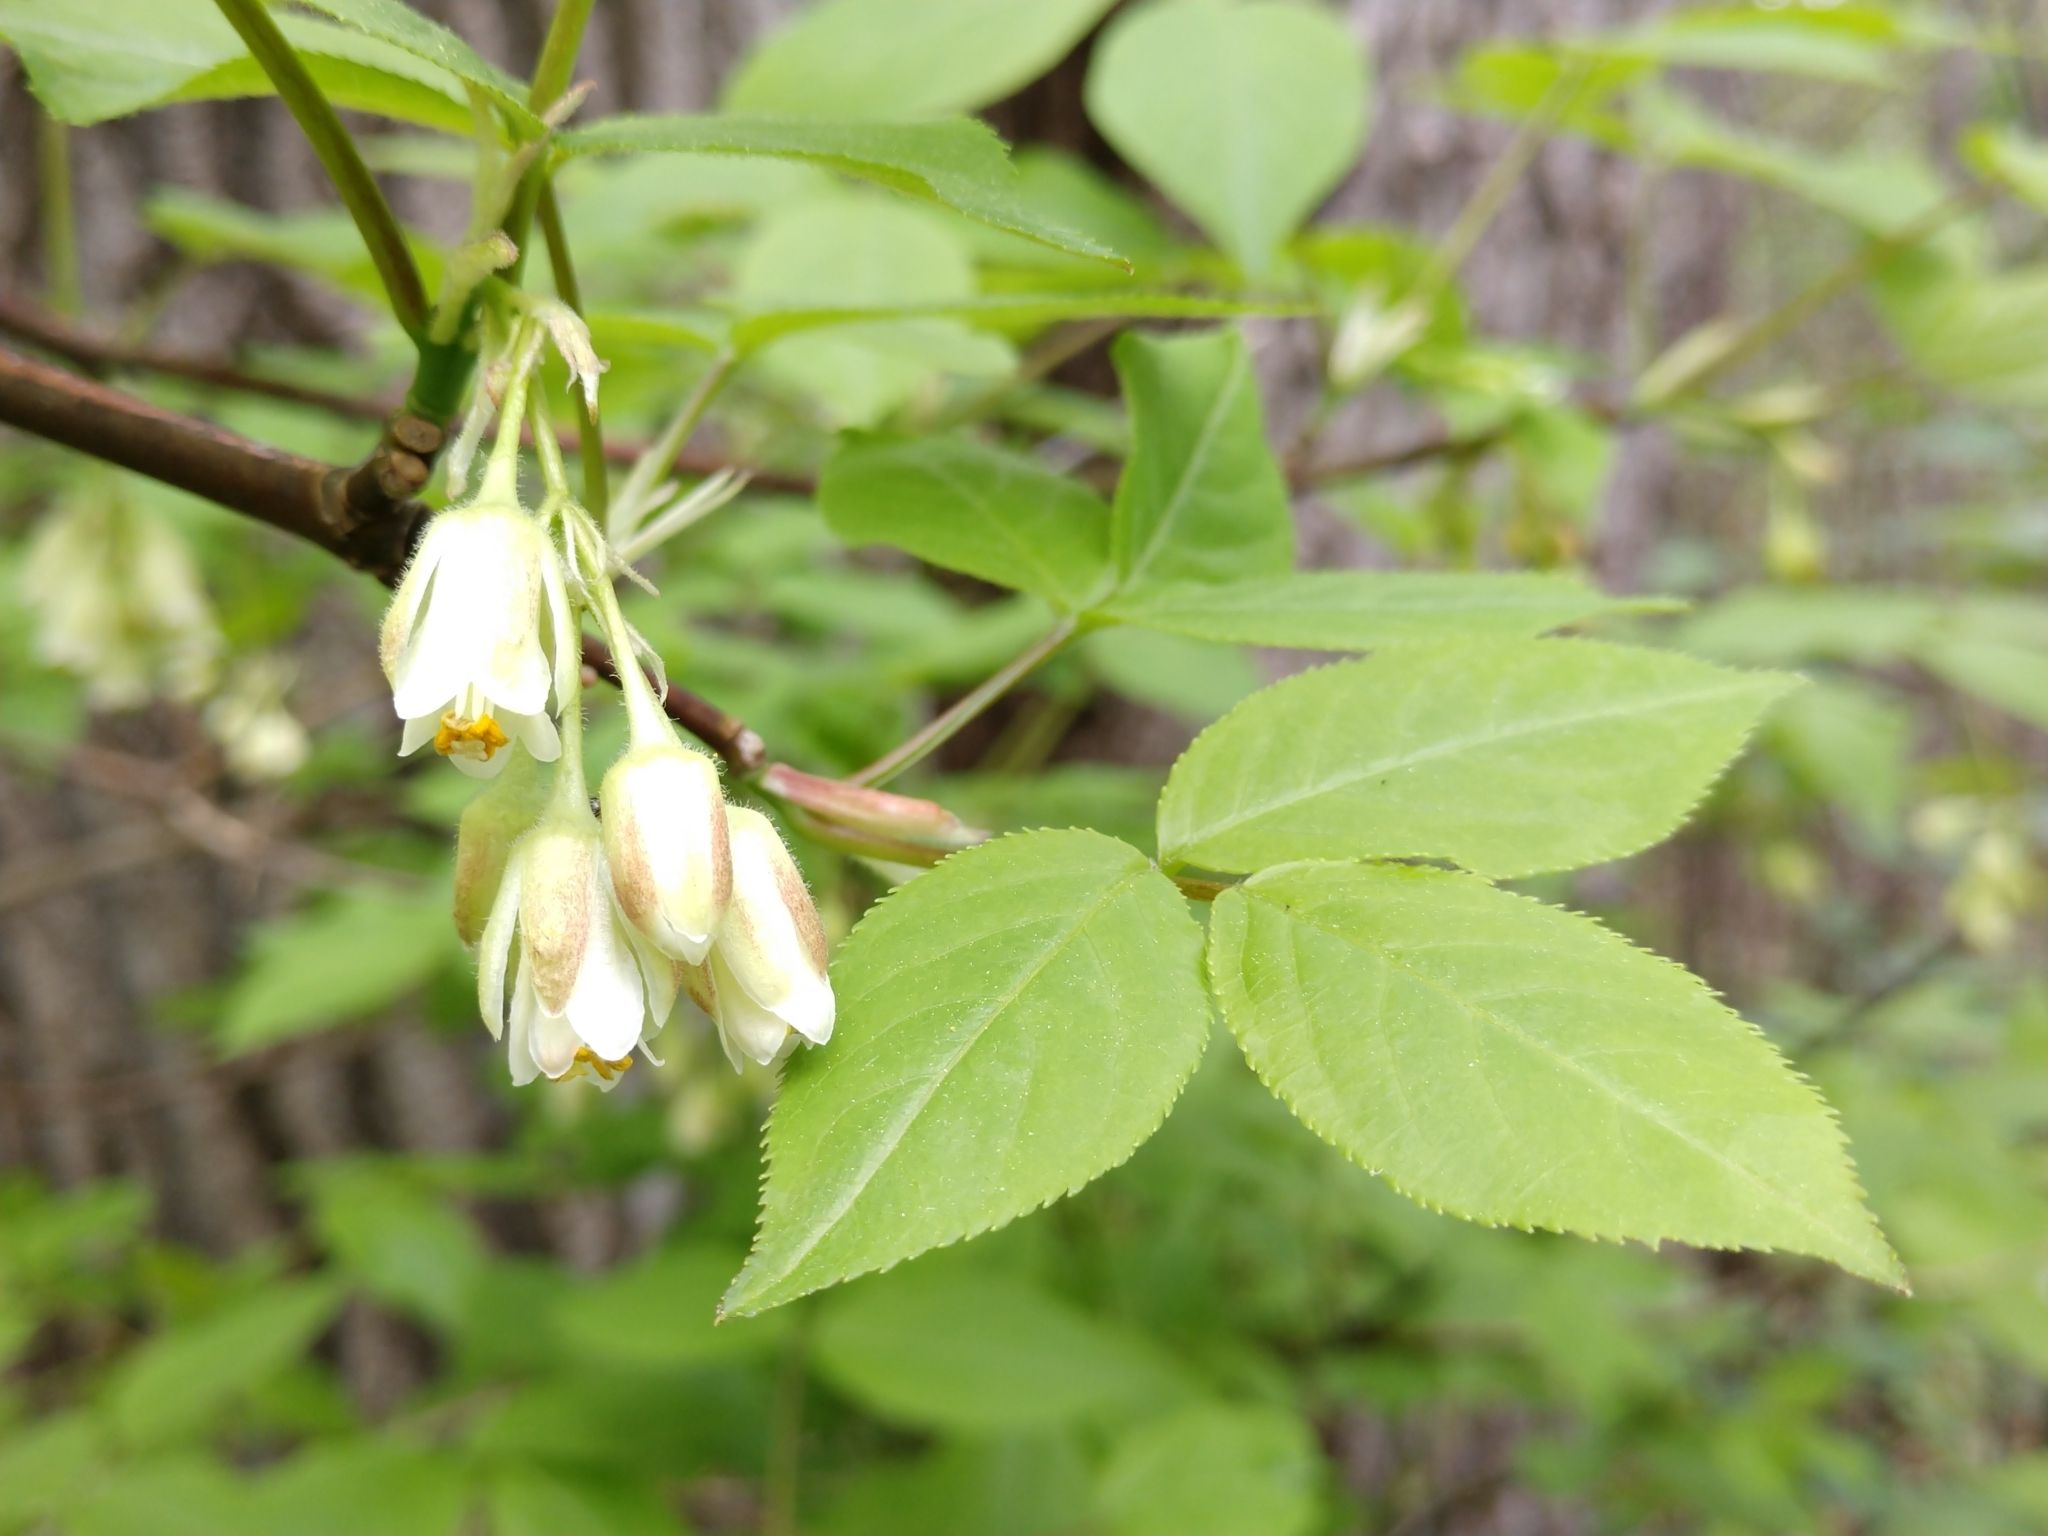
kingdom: Plantae
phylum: Tracheophyta
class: Magnoliopsida
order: Crossosomatales
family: Staphyleaceae
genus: Staphylea
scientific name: Staphylea trifolia
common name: American bladdernut
